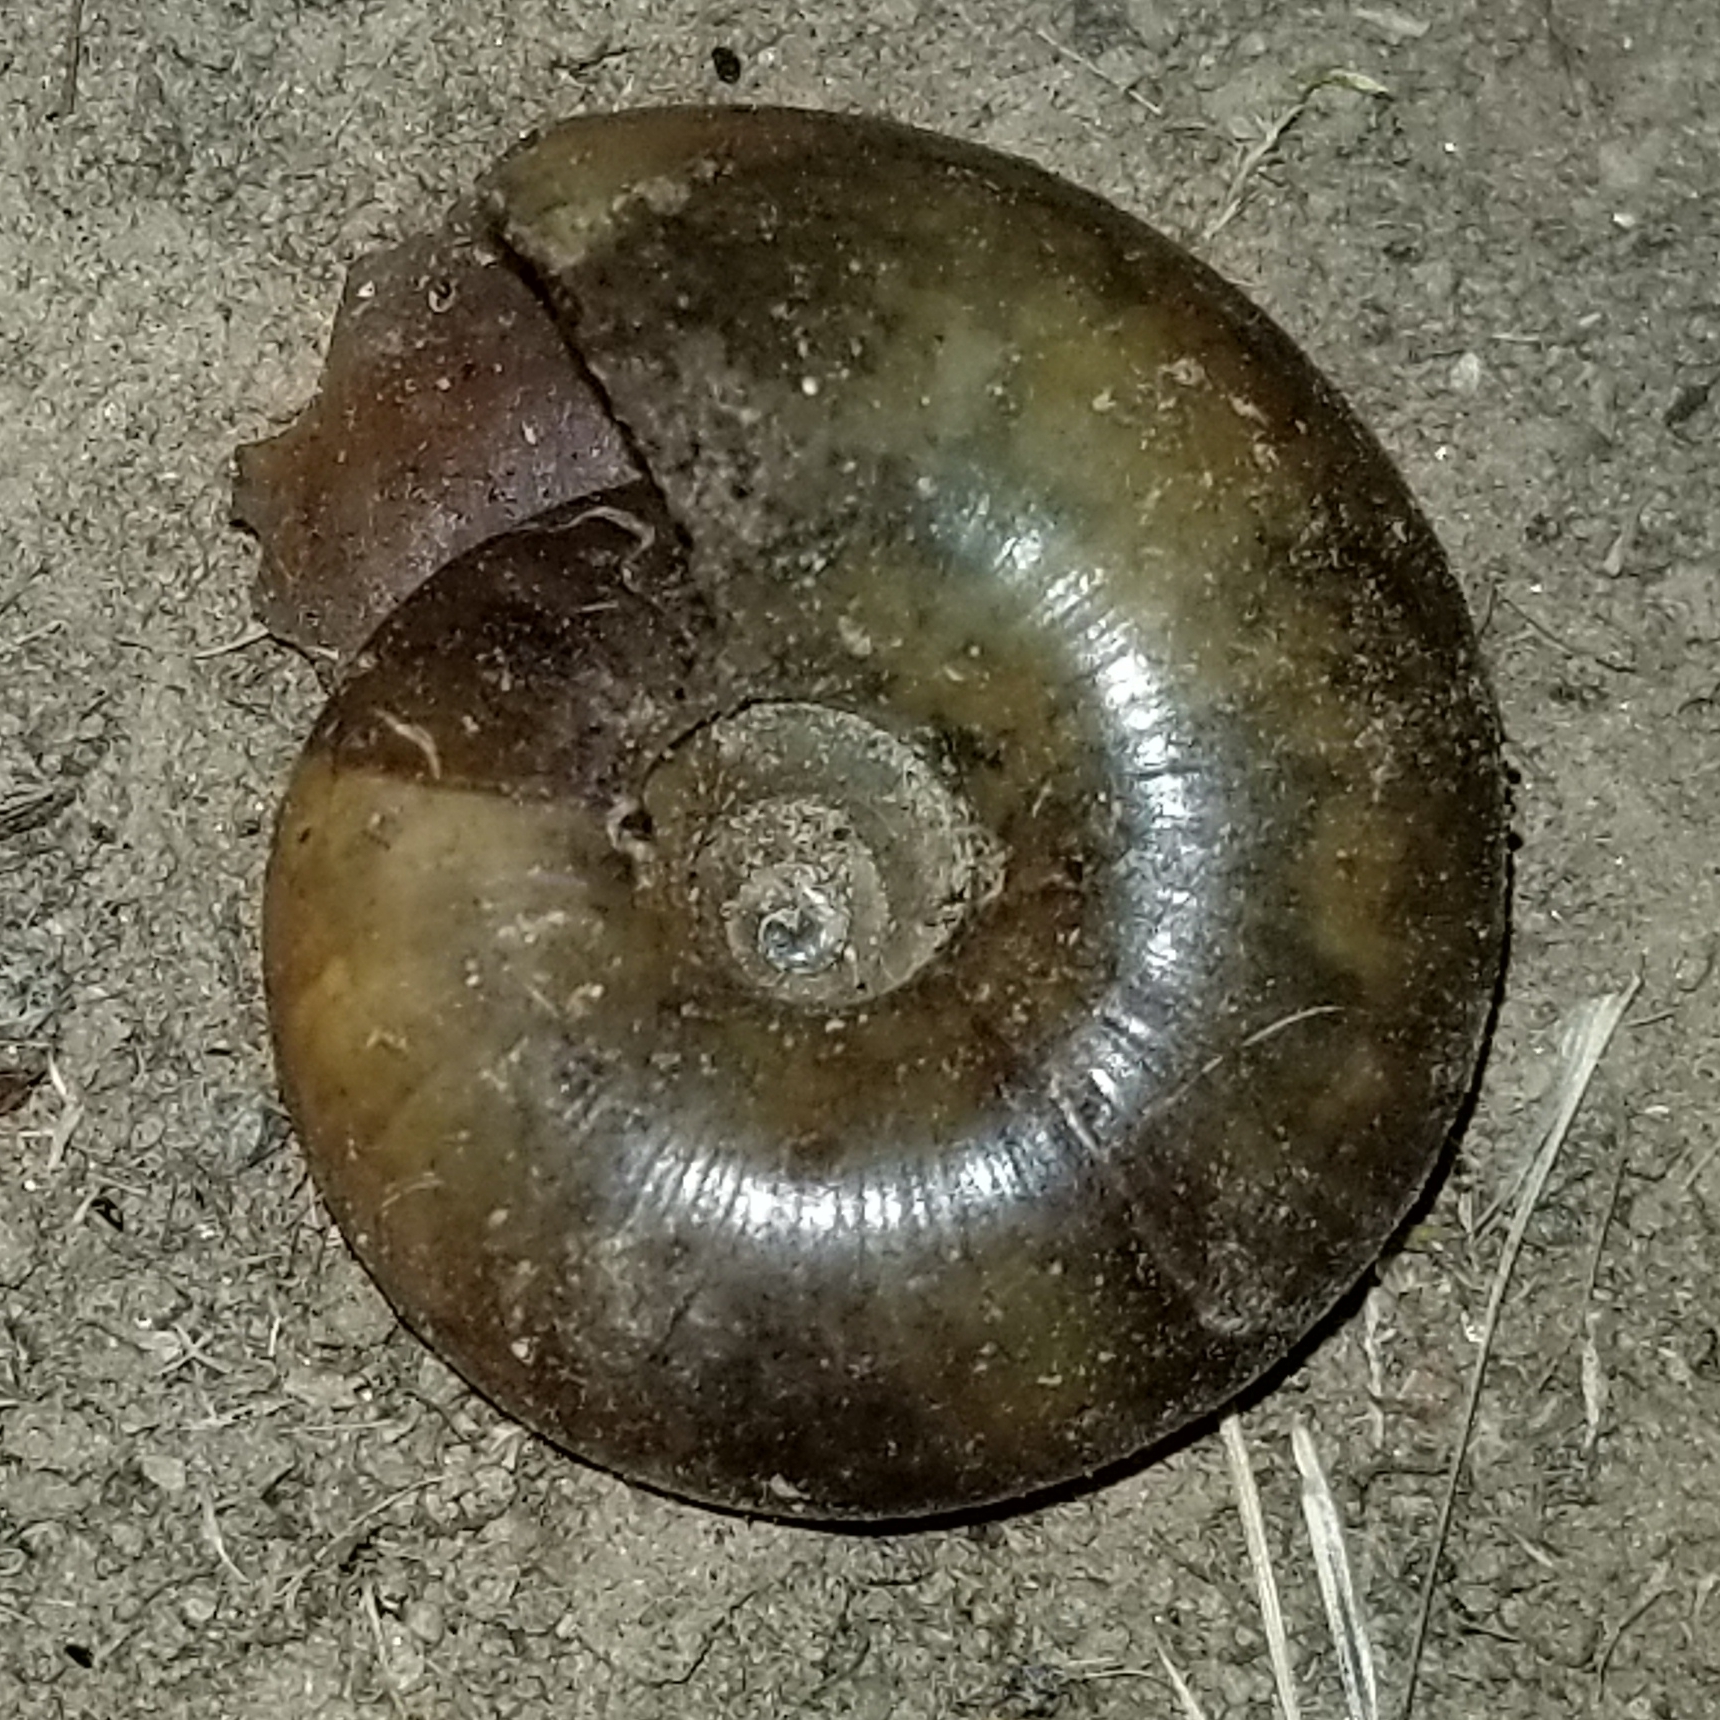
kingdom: Animalia
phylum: Mollusca
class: Gastropoda
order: Stylommatophora
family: Megomphicidae
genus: Glyptostoma
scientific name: Glyptostoma newberryanum
